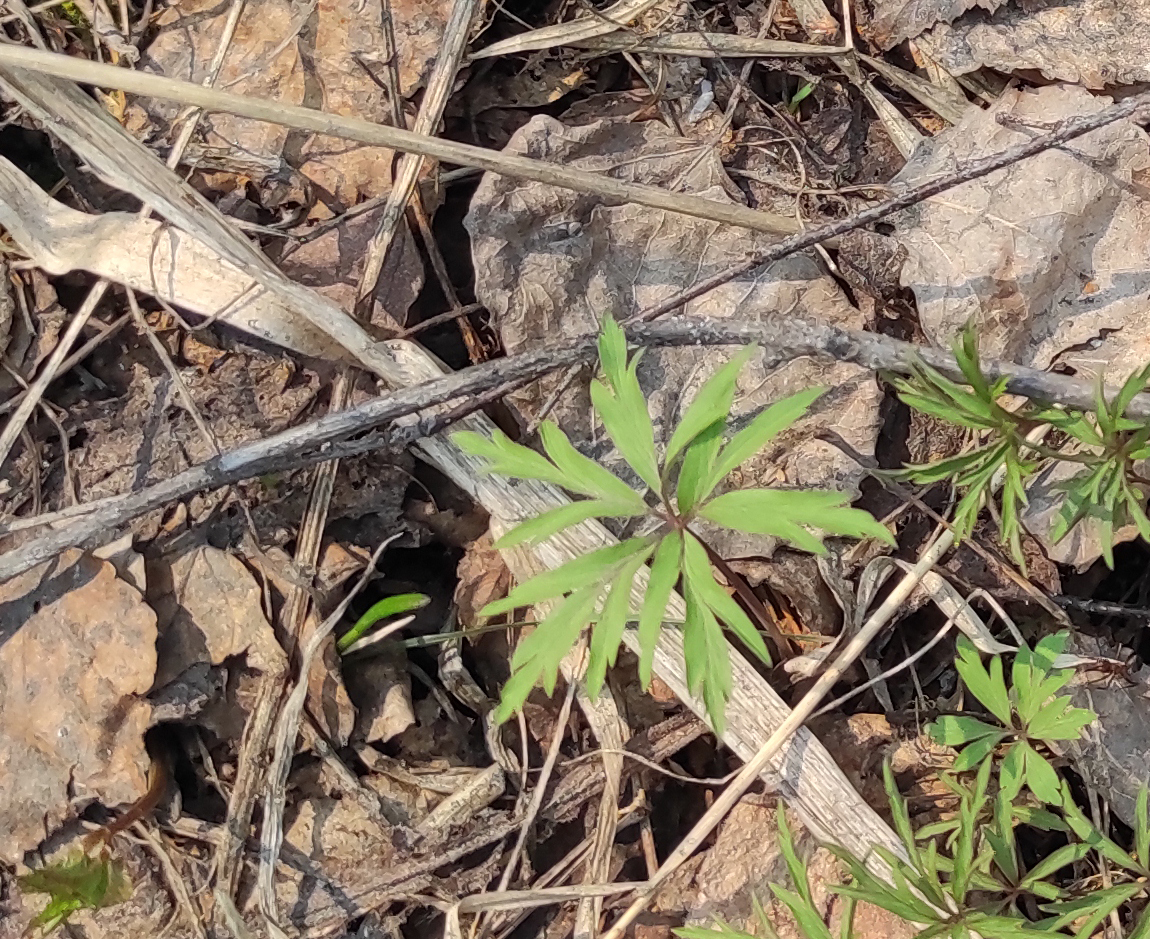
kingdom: Plantae
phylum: Tracheophyta
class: Magnoliopsida
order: Ranunculales
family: Ranunculaceae
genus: Anemone
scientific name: Anemone caerulea
